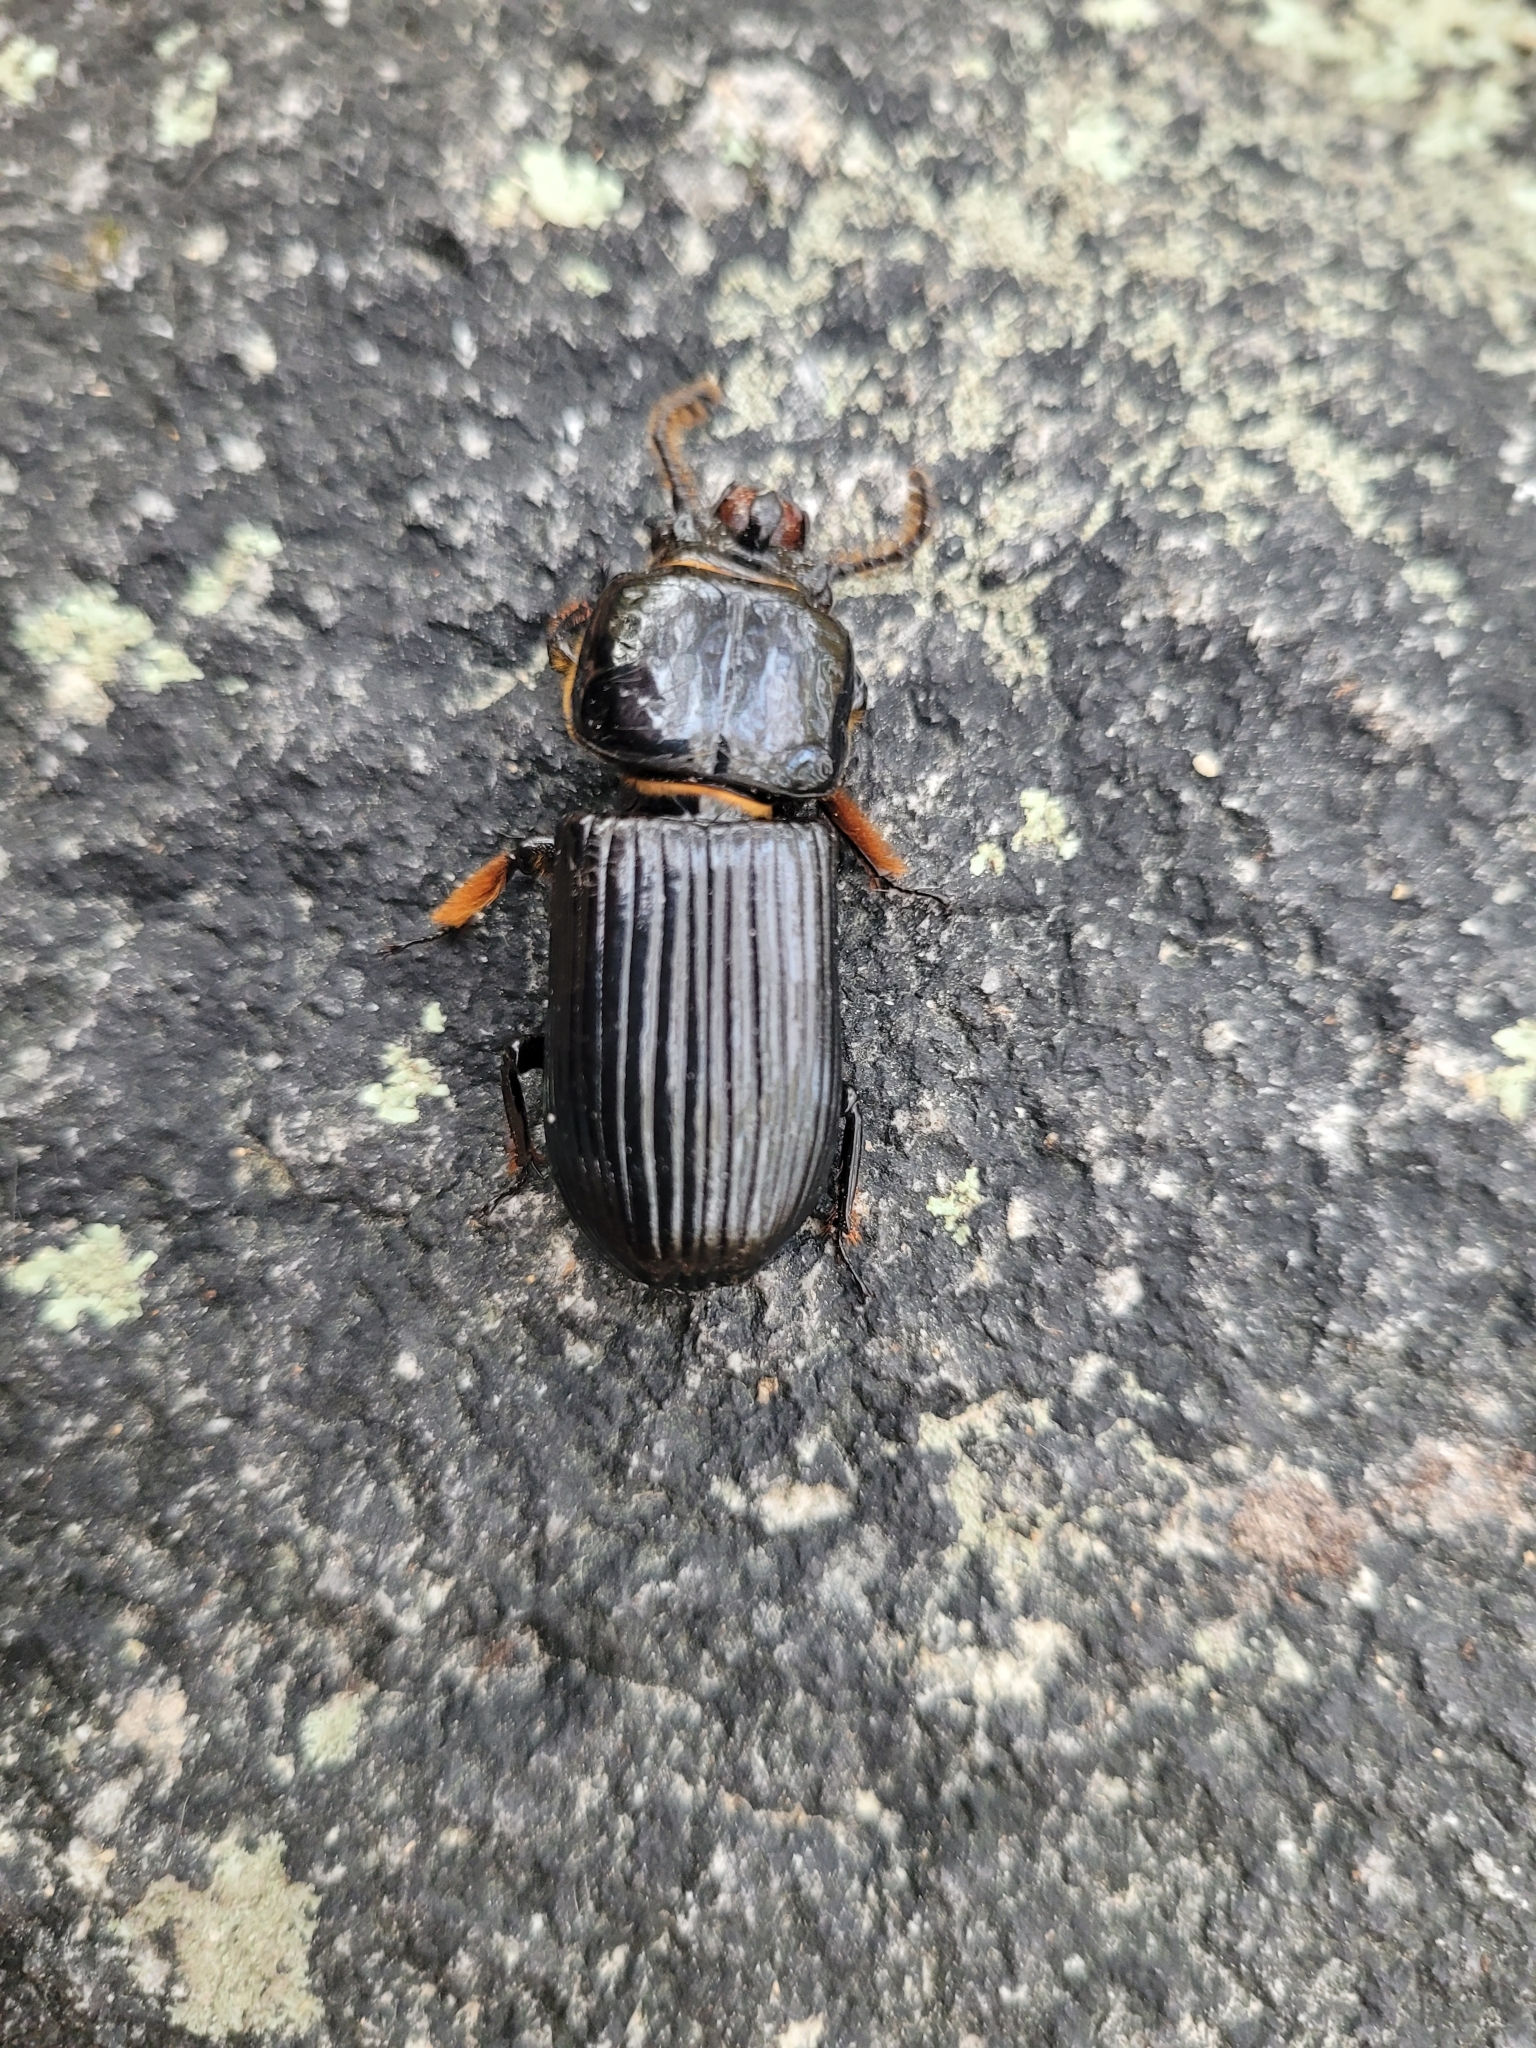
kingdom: Animalia
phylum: Arthropoda
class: Insecta
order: Coleoptera
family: Passalidae
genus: Odontotaenius
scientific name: Odontotaenius disjunctus
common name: Patent leather beetle
